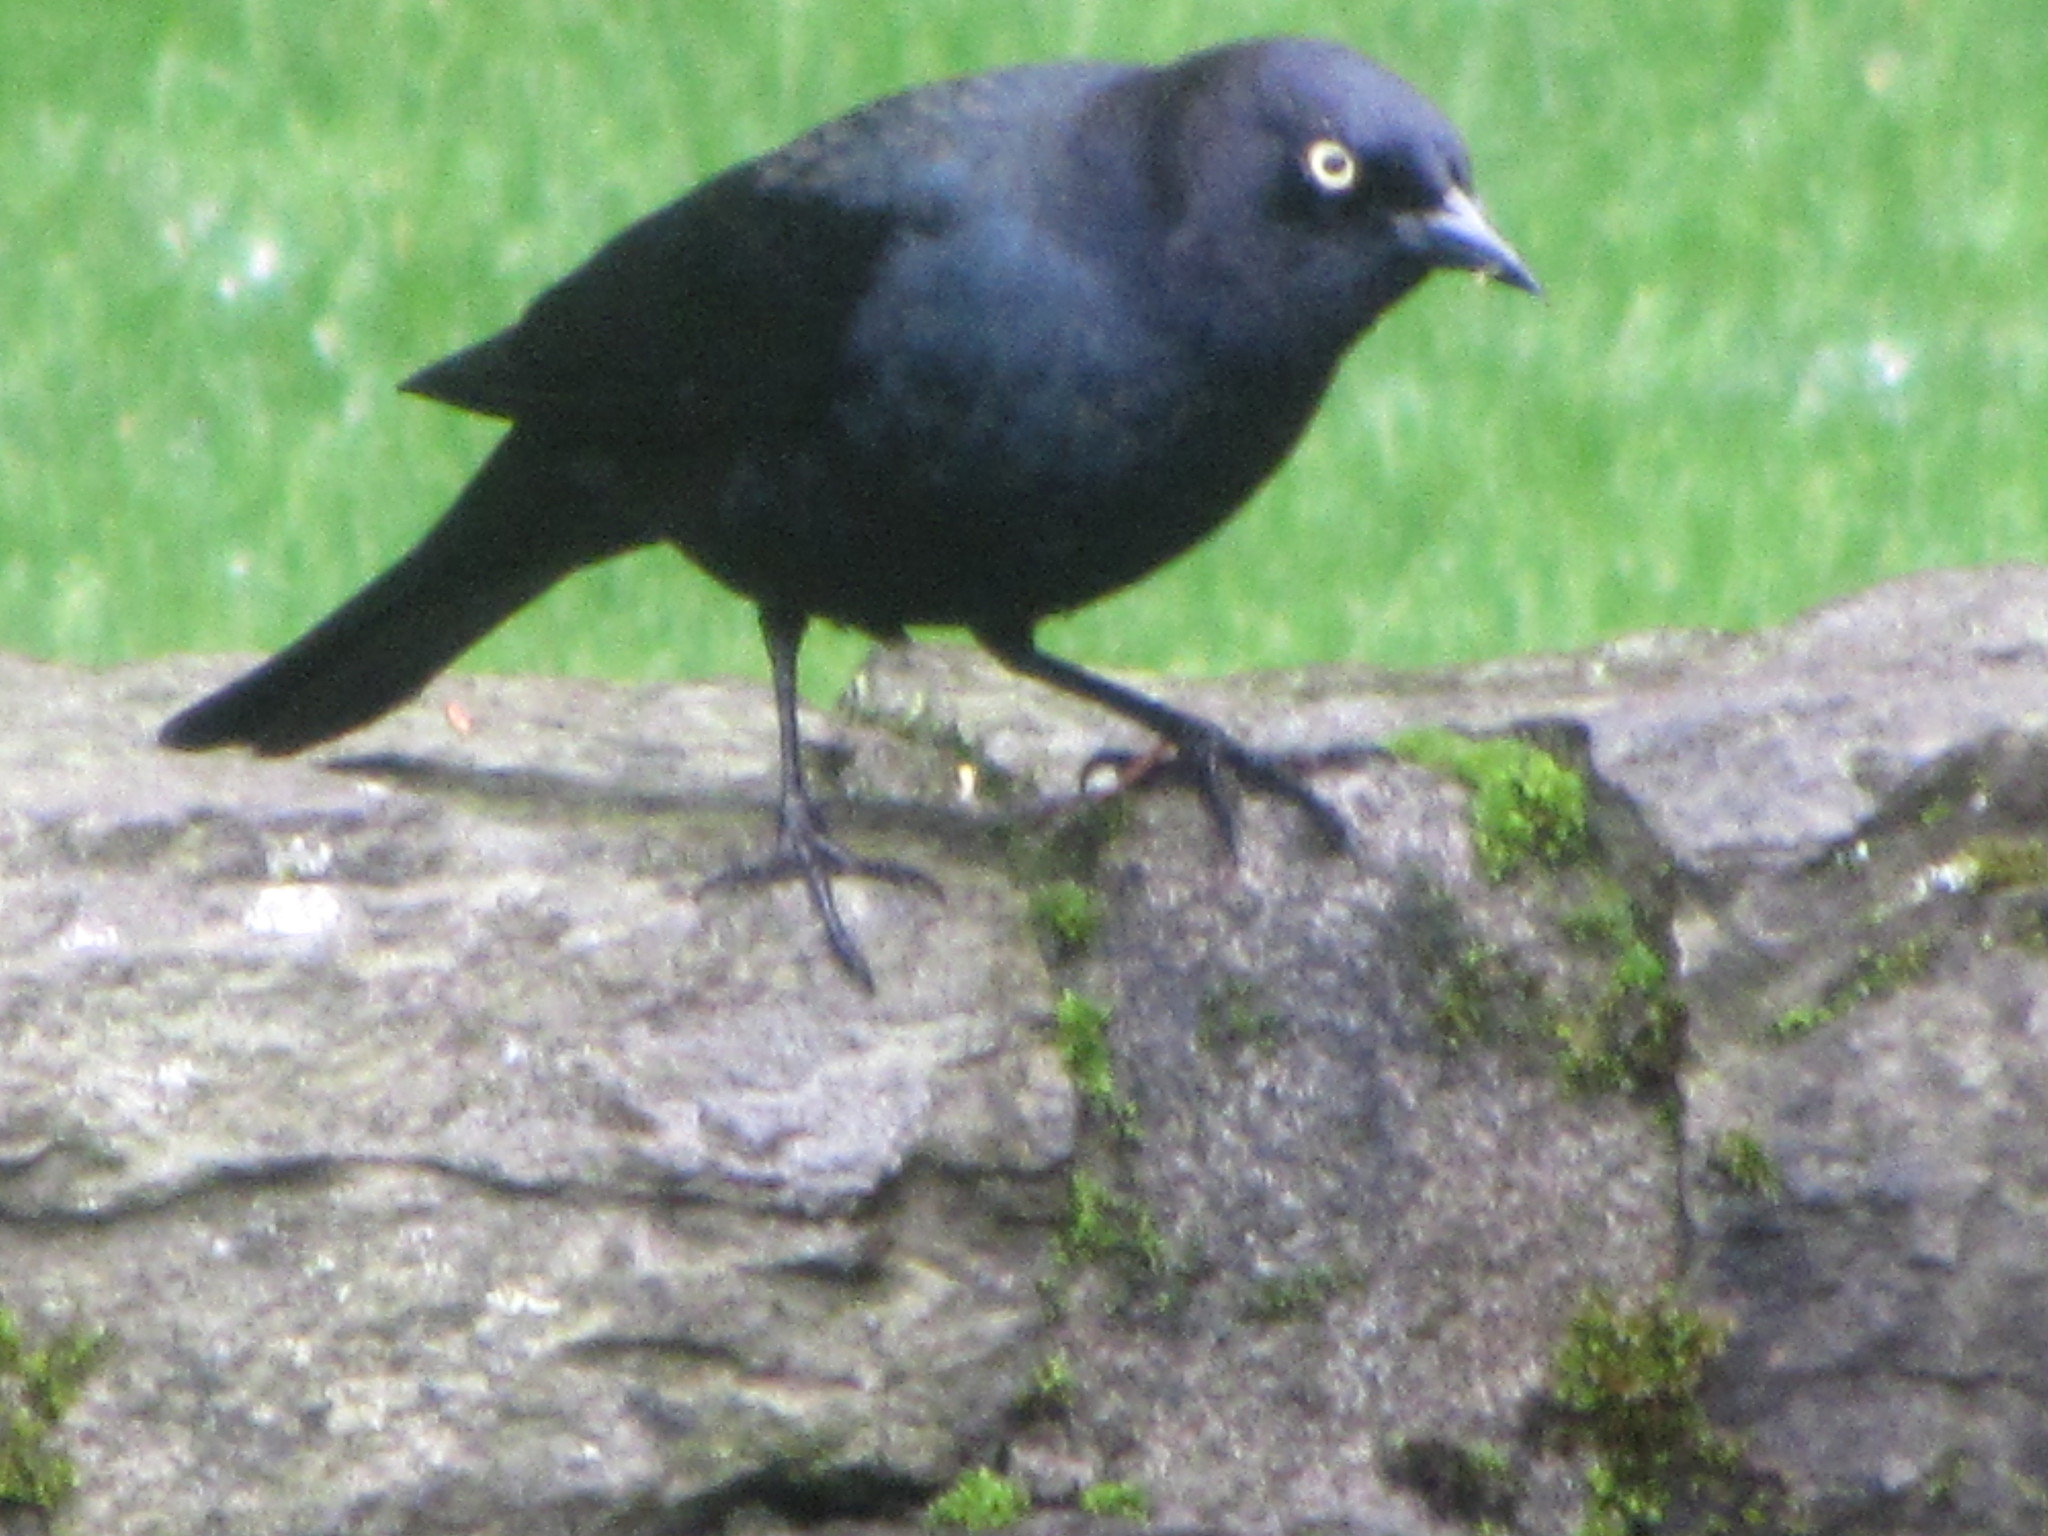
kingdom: Animalia
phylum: Chordata
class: Aves
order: Passeriformes
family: Icteridae
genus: Euphagus
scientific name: Euphagus cyanocephalus
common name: Brewer's blackbird
